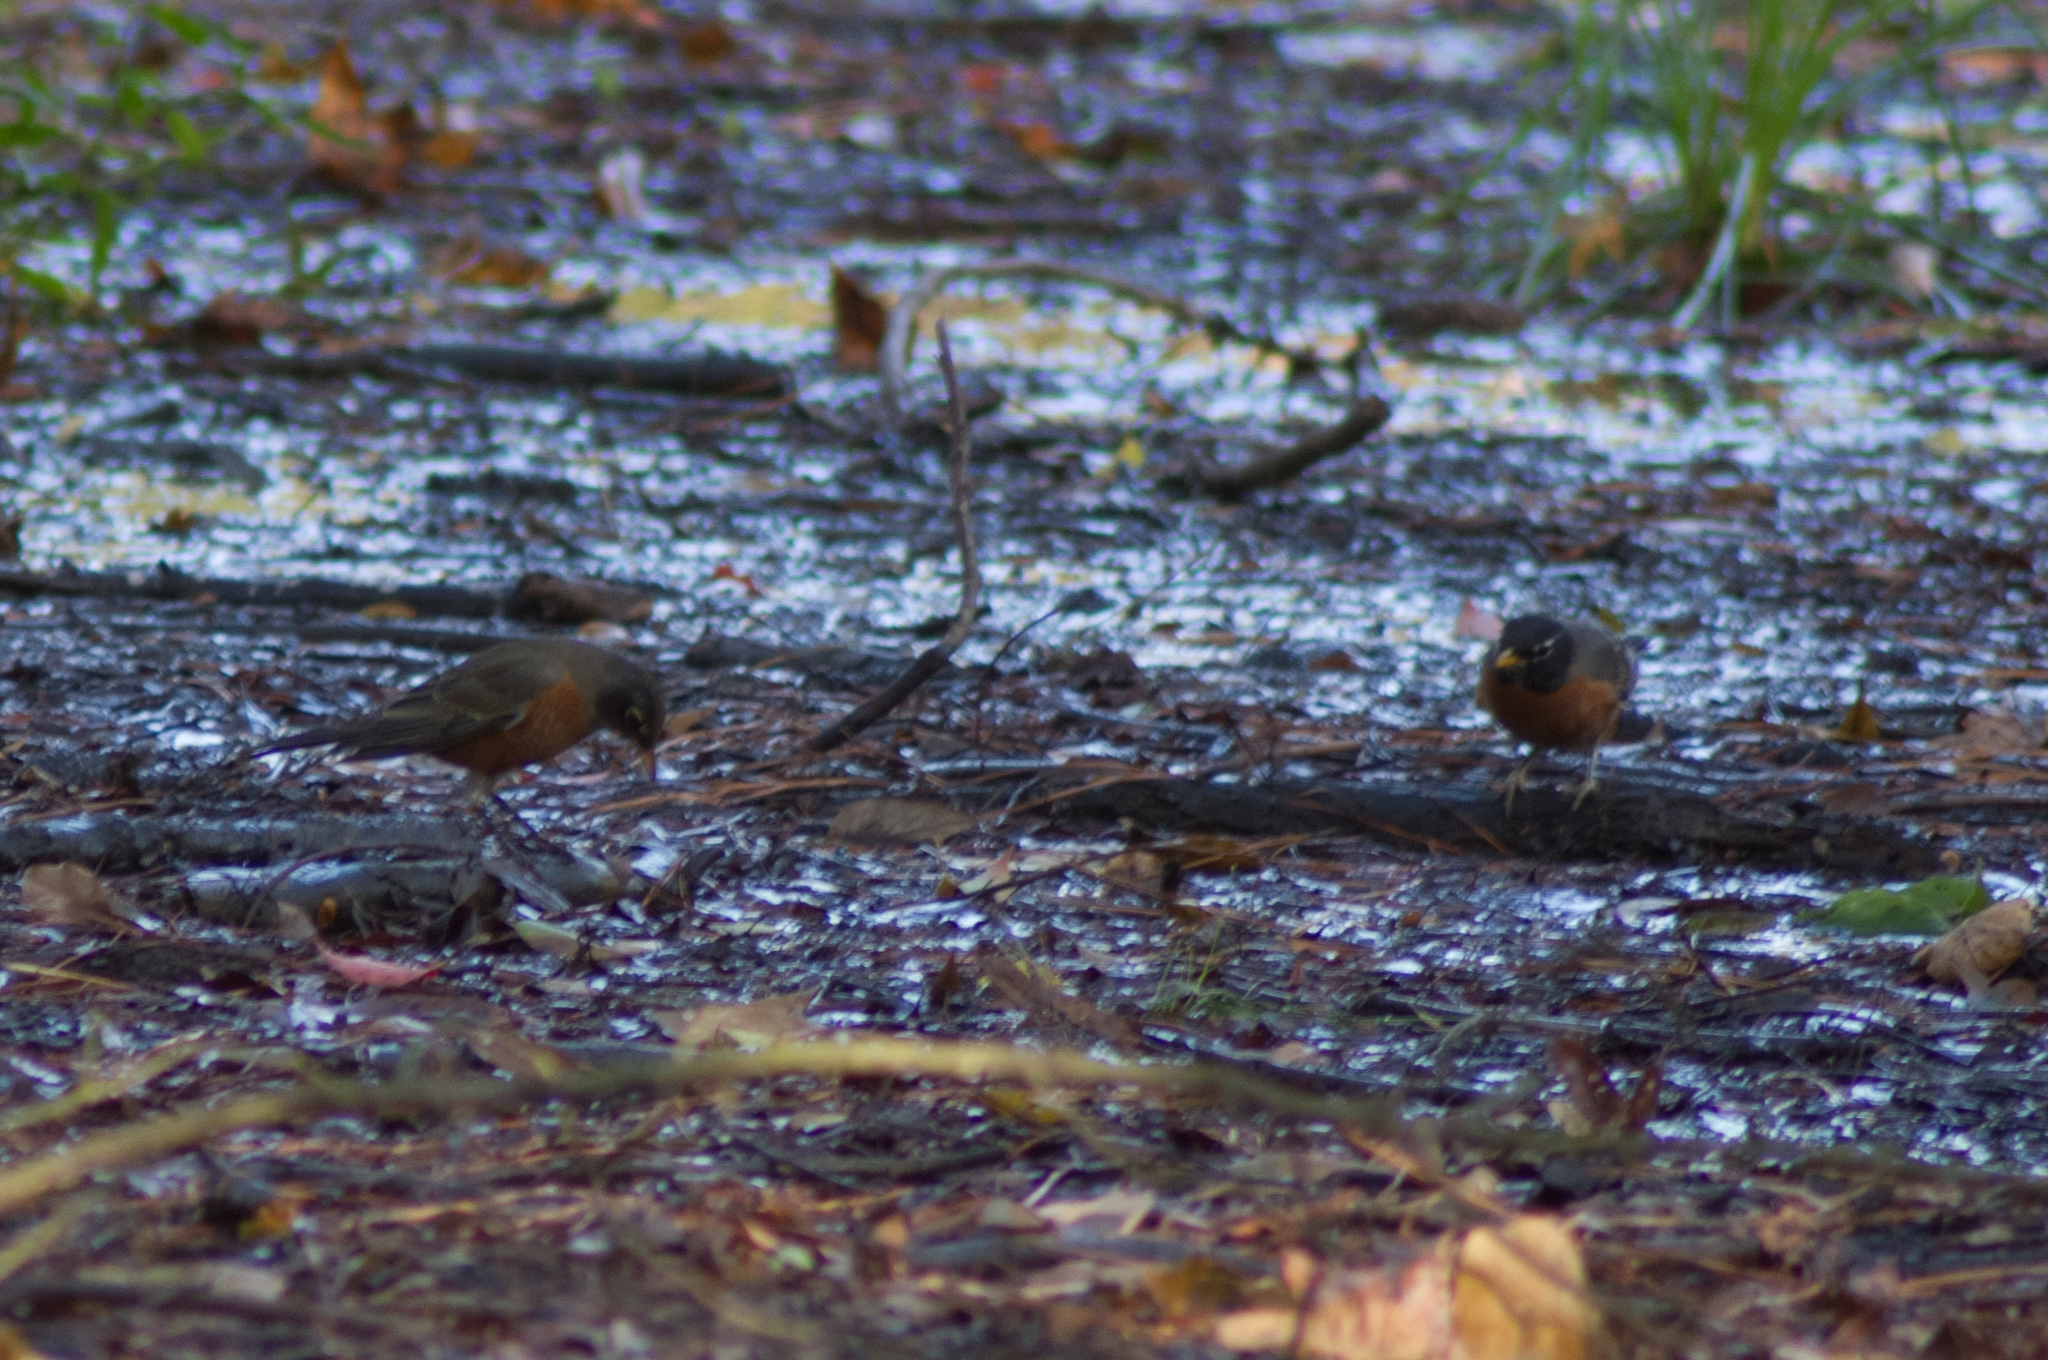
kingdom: Animalia
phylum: Chordata
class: Aves
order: Passeriformes
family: Turdidae
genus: Turdus
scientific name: Turdus migratorius
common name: American robin
